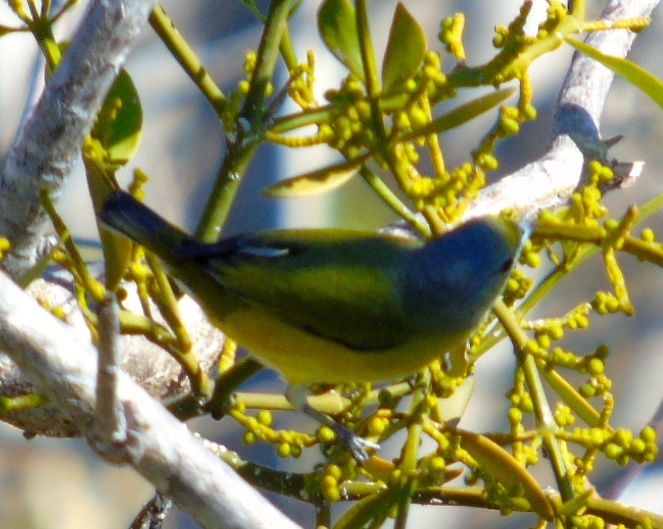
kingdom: Animalia
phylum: Chordata
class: Aves
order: Passeriformes
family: Fringillidae
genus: Euphonia
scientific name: Euphonia elegantissima
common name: Elegant euphonia
